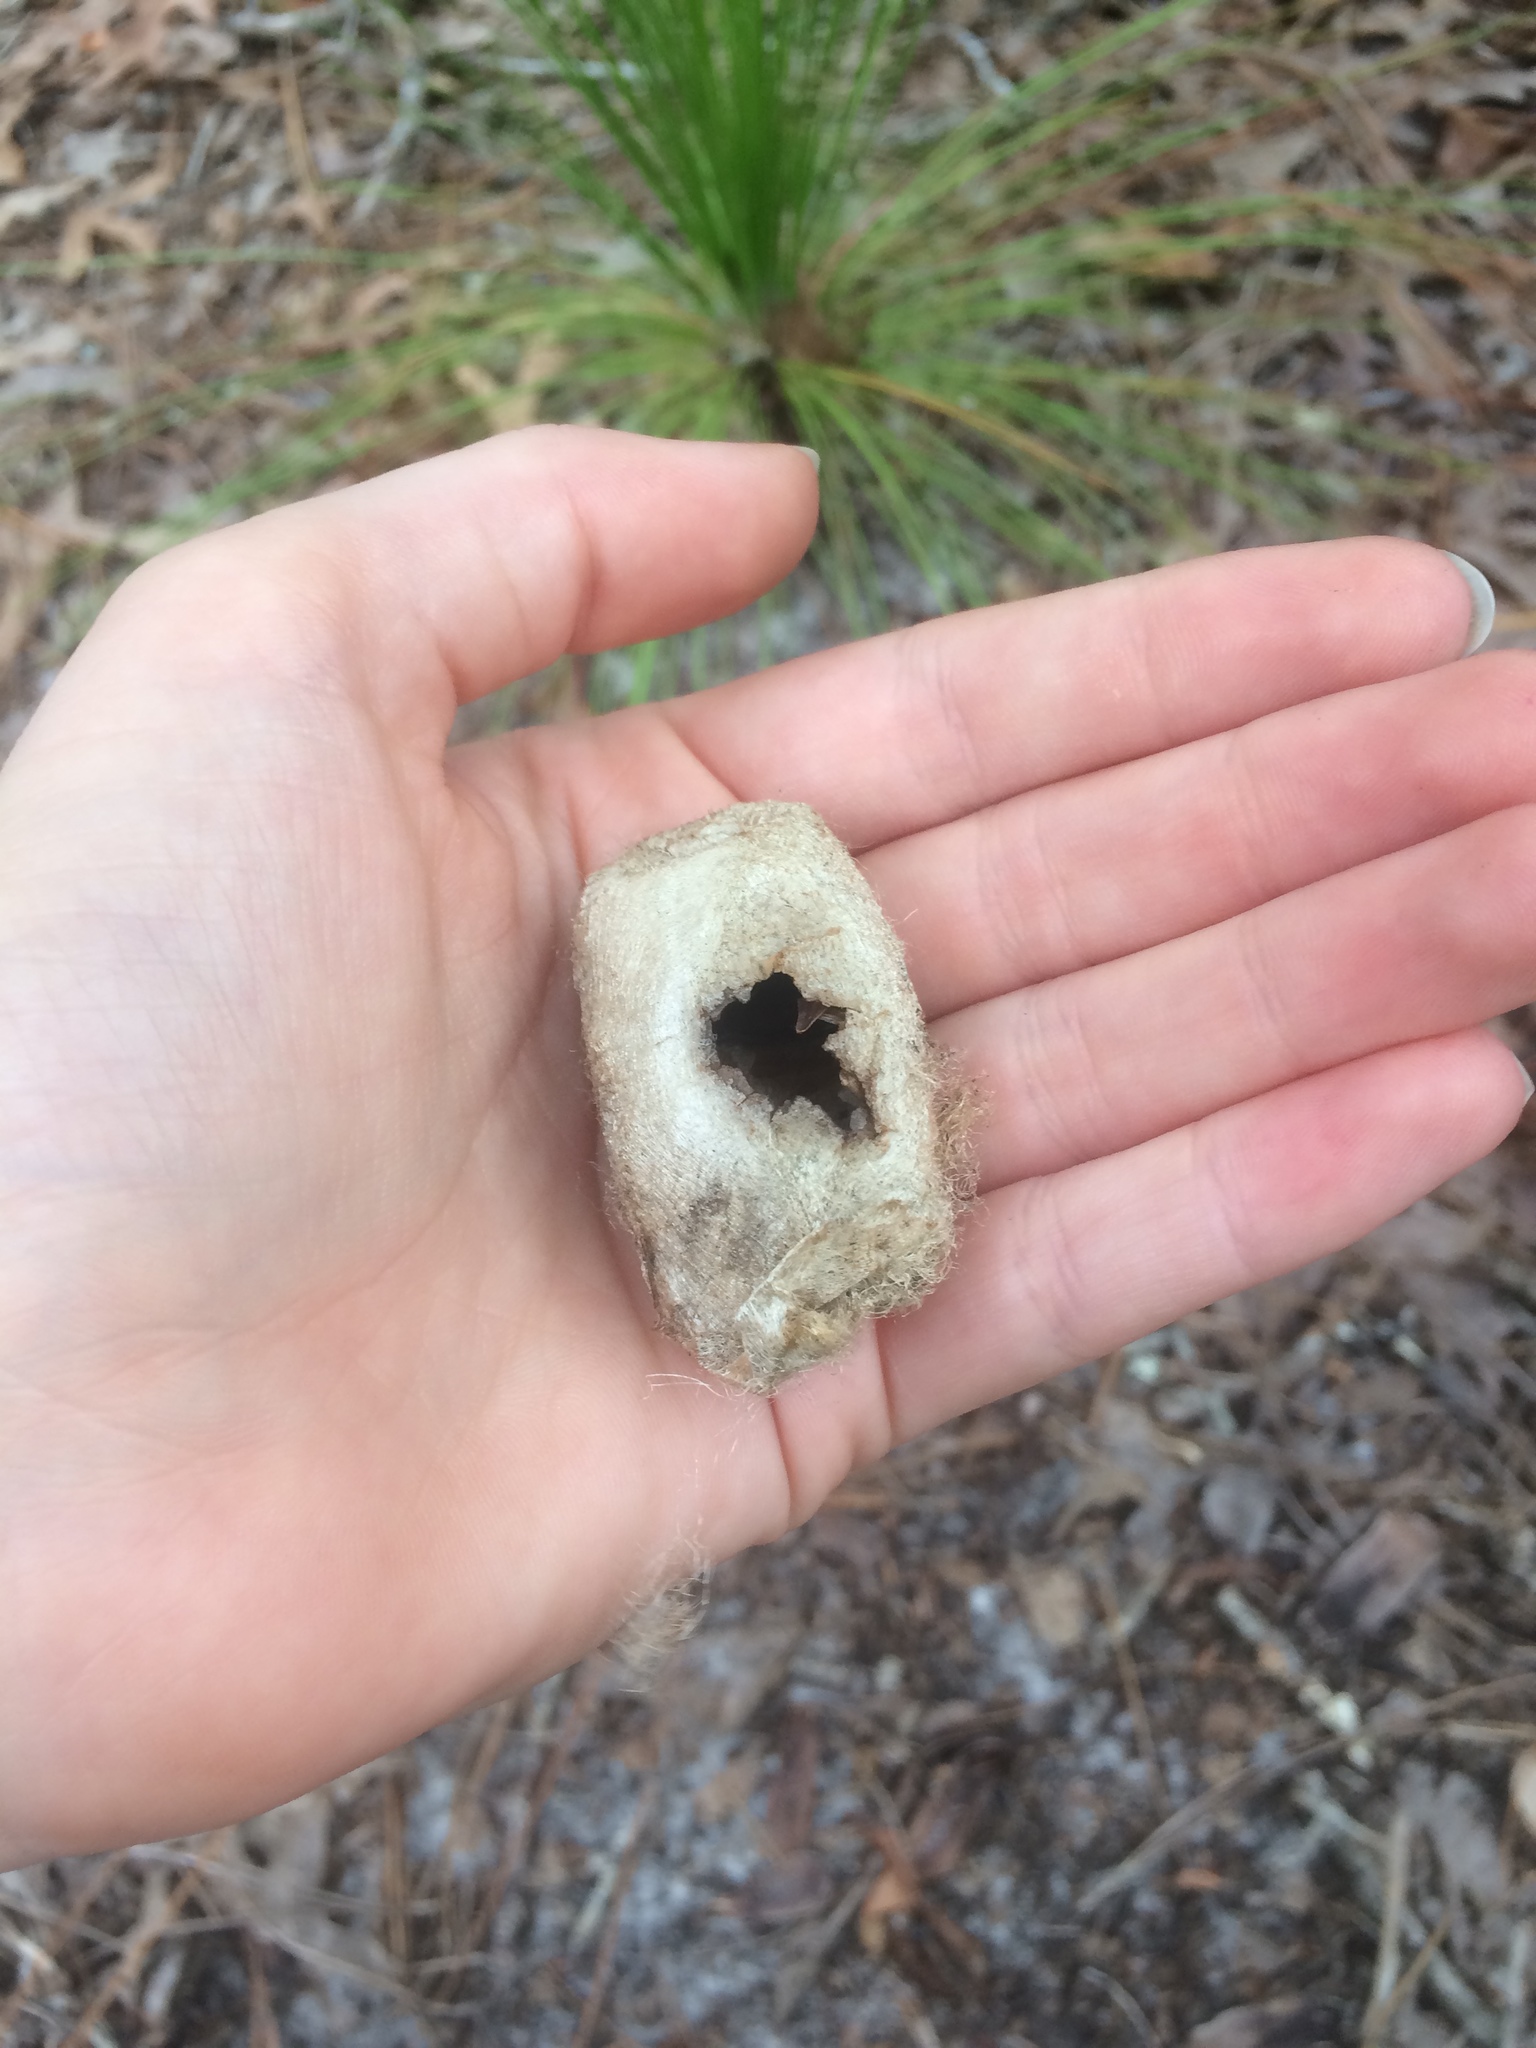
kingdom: Animalia
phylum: Arthropoda
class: Insecta
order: Lepidoptera
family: Saturniidae
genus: Antheraea
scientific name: Antheraea polyphemus
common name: Polyphemus moth
